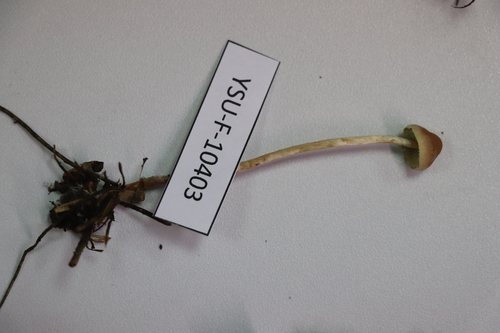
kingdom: Fungi
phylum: Basidiomycota
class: Agaricomycetes
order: Agaricales
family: Strophariaceae
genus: Hypholoma
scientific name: Hypholoma
